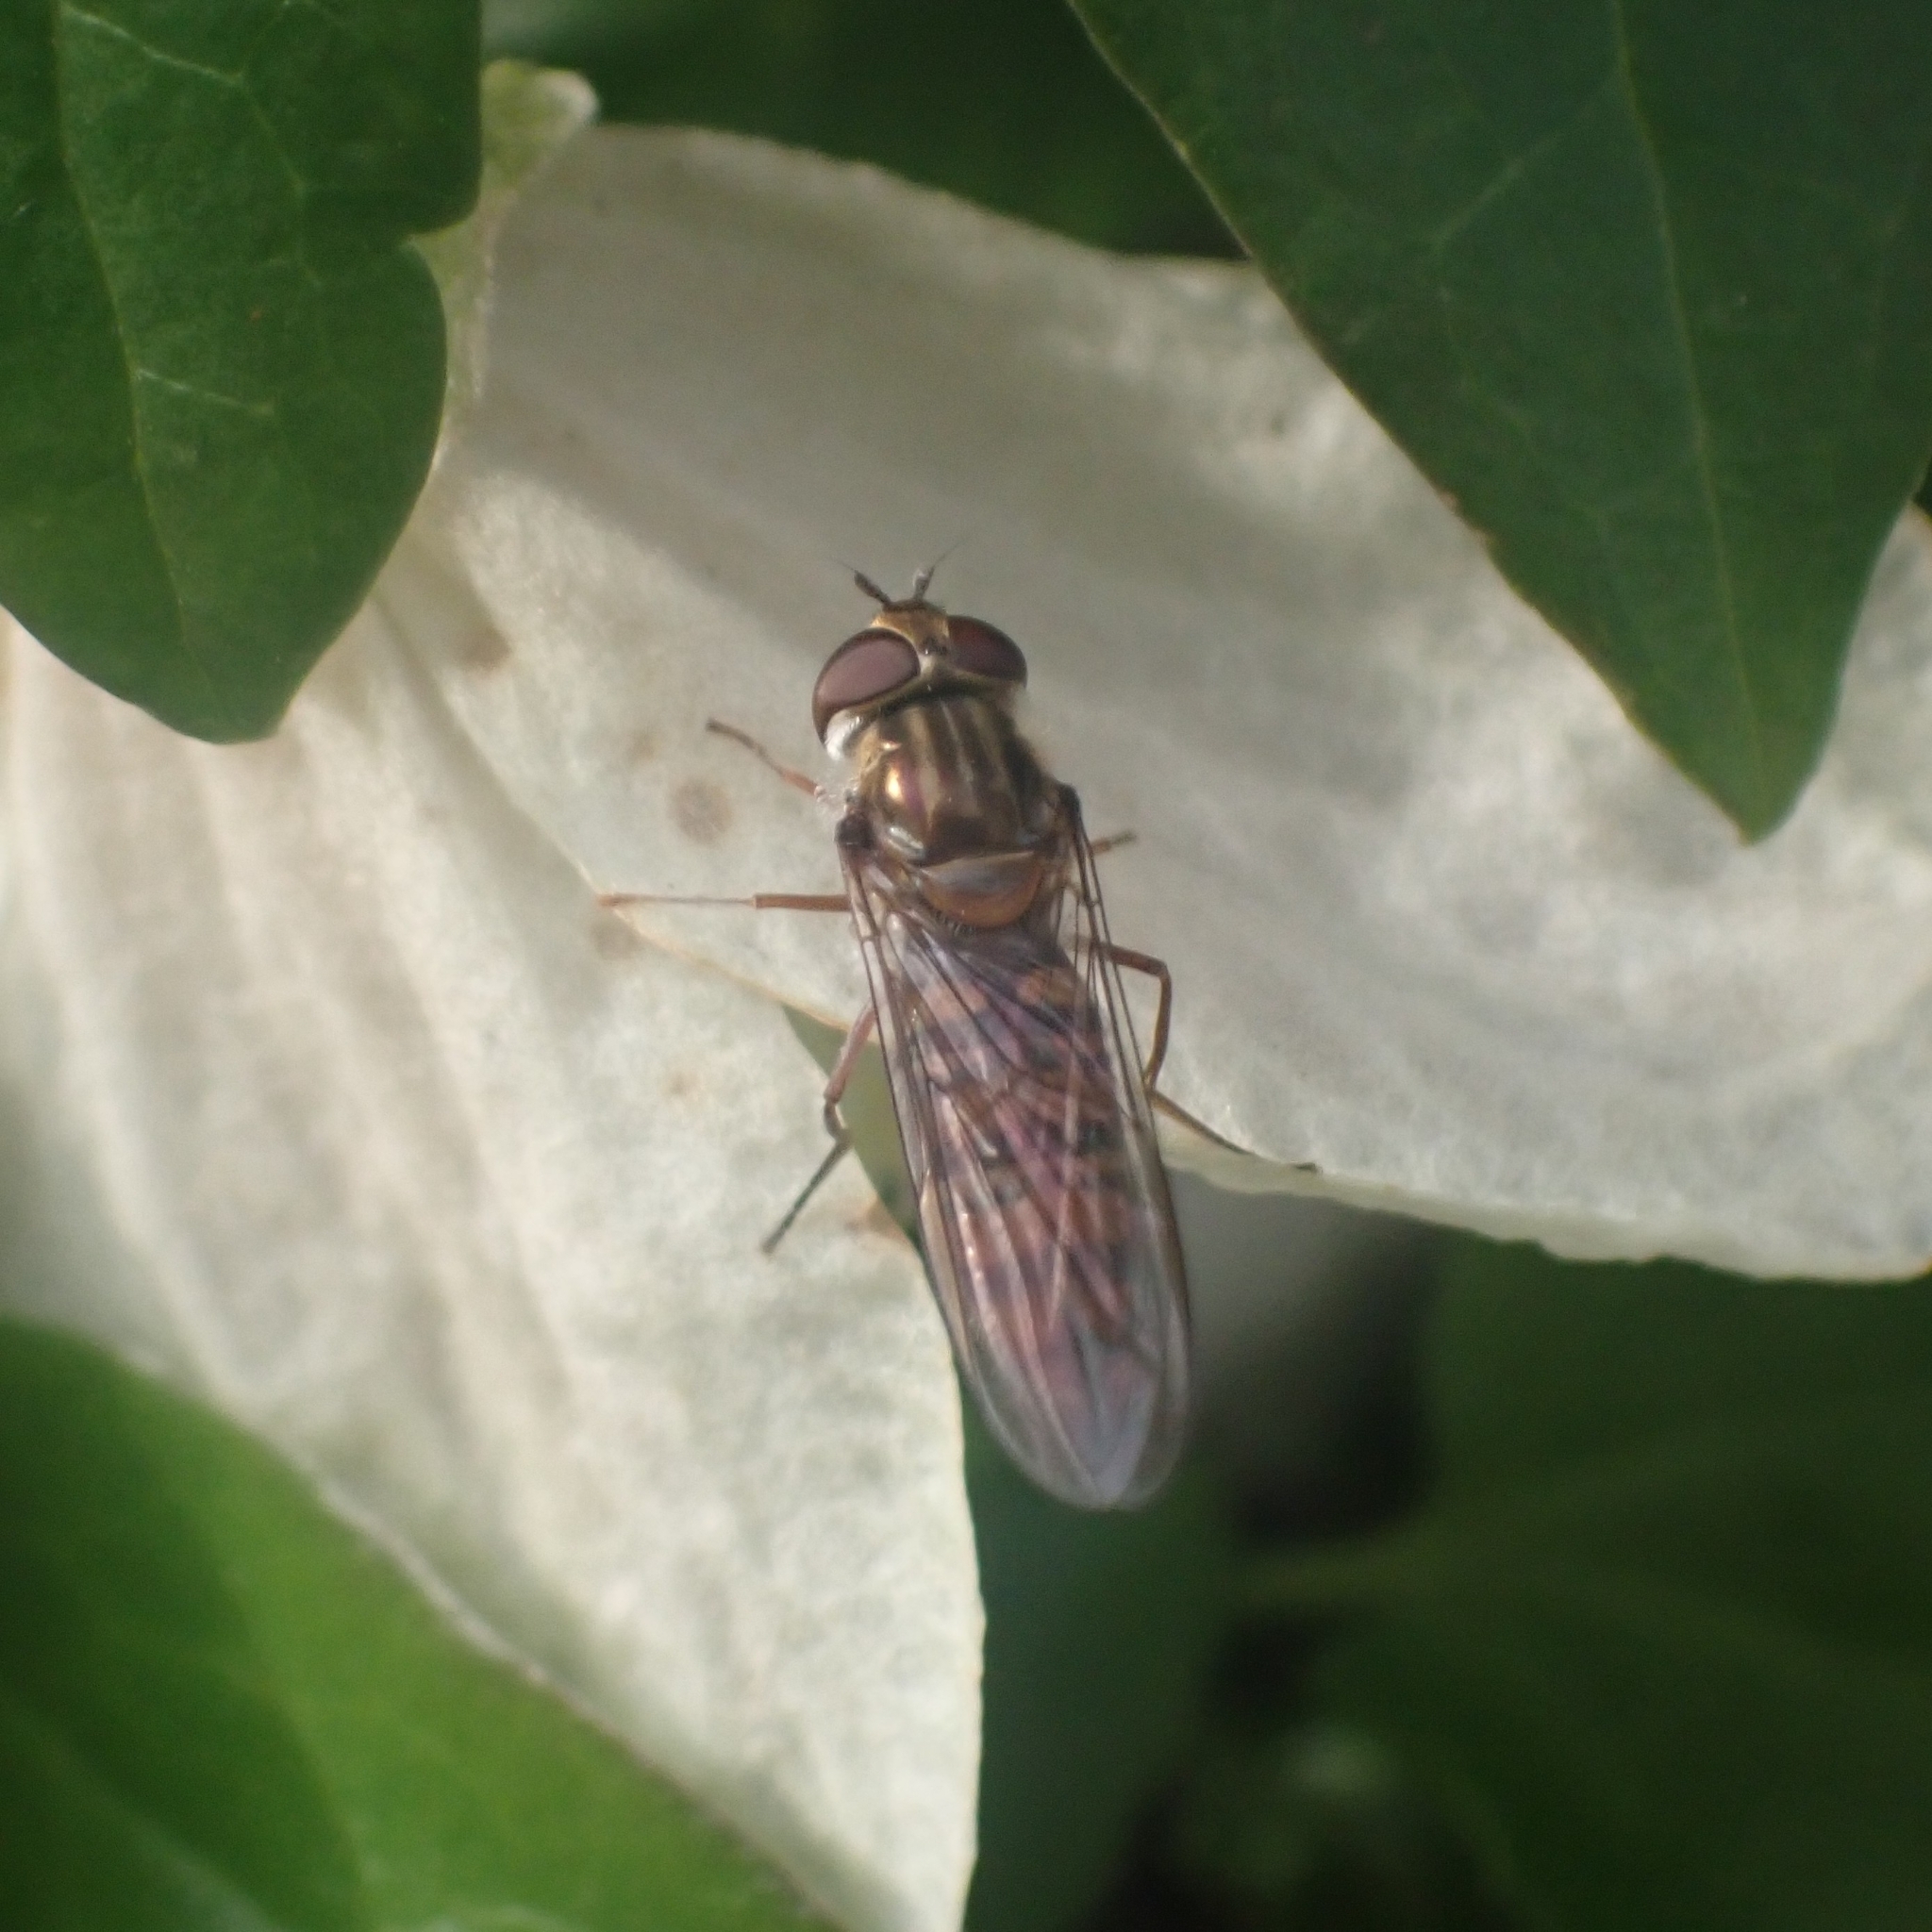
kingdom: Animalia
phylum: Arthropoda
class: Insecta
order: Diptera
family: Syrphidae
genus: Episyrphus
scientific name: Episyrphus balteatus
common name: Marmalade hoverfly
